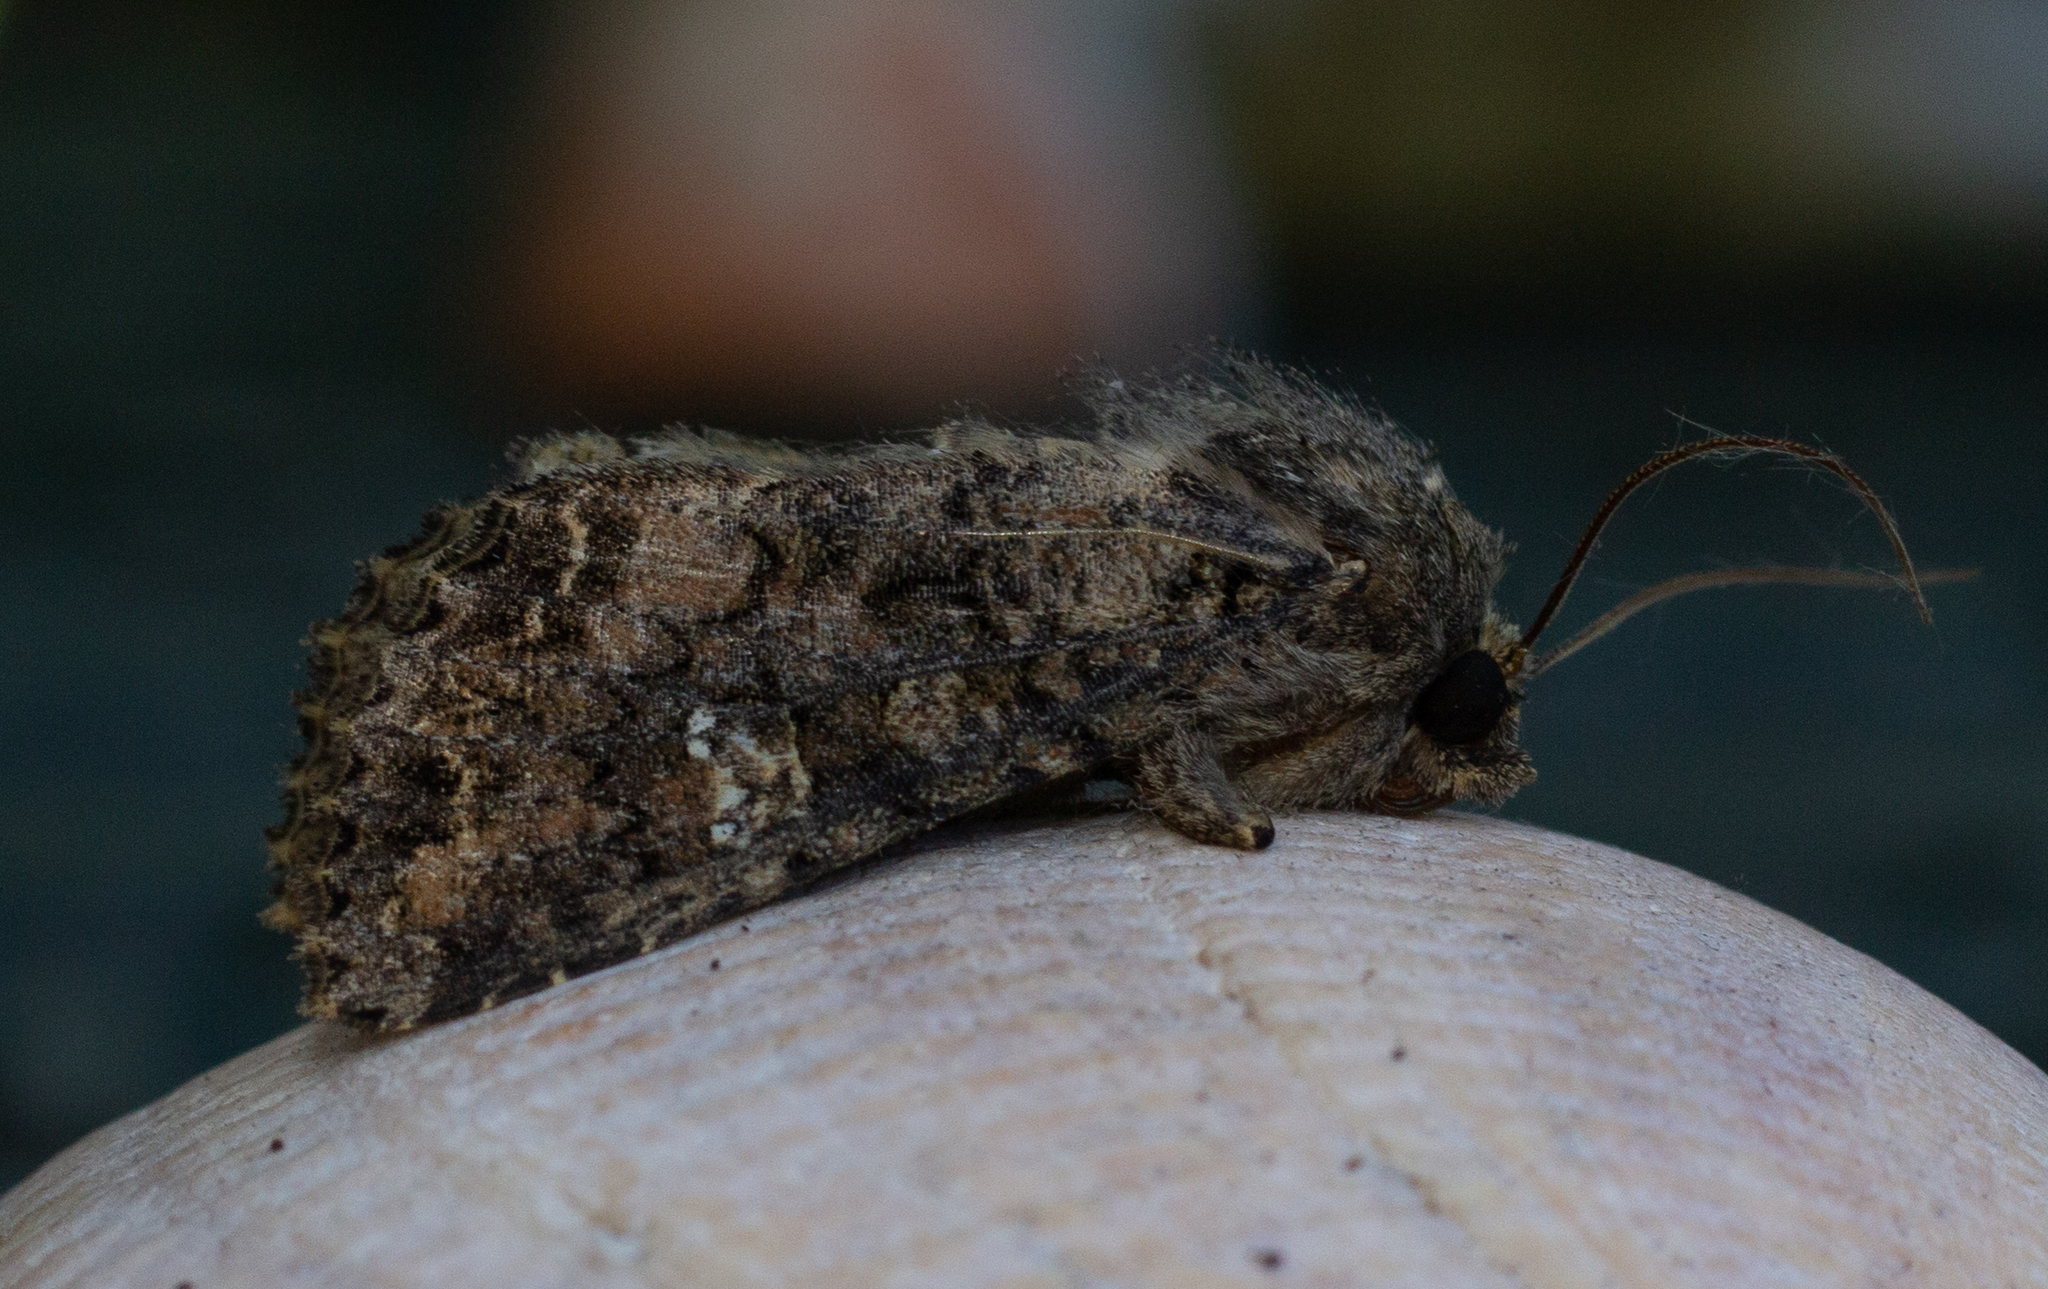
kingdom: Animalia
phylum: Arthropoda
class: Insecta
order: Lepidoptera
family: Noctuidae
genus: Mamestra
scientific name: Mamestra brassicae
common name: Cabbage moth
